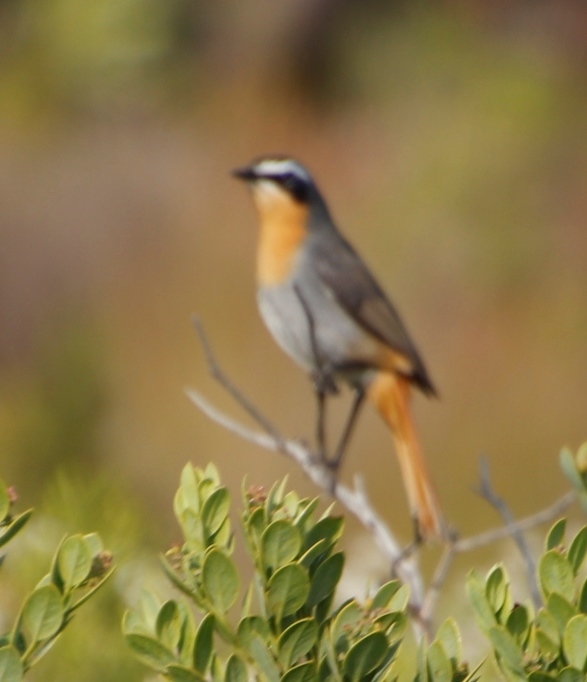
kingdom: Animalia
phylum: Chordata
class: Aves
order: Passeriformes
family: Muscicapidae
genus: Cossypha
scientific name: Cossypha caffra
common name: Cape robin-chat
